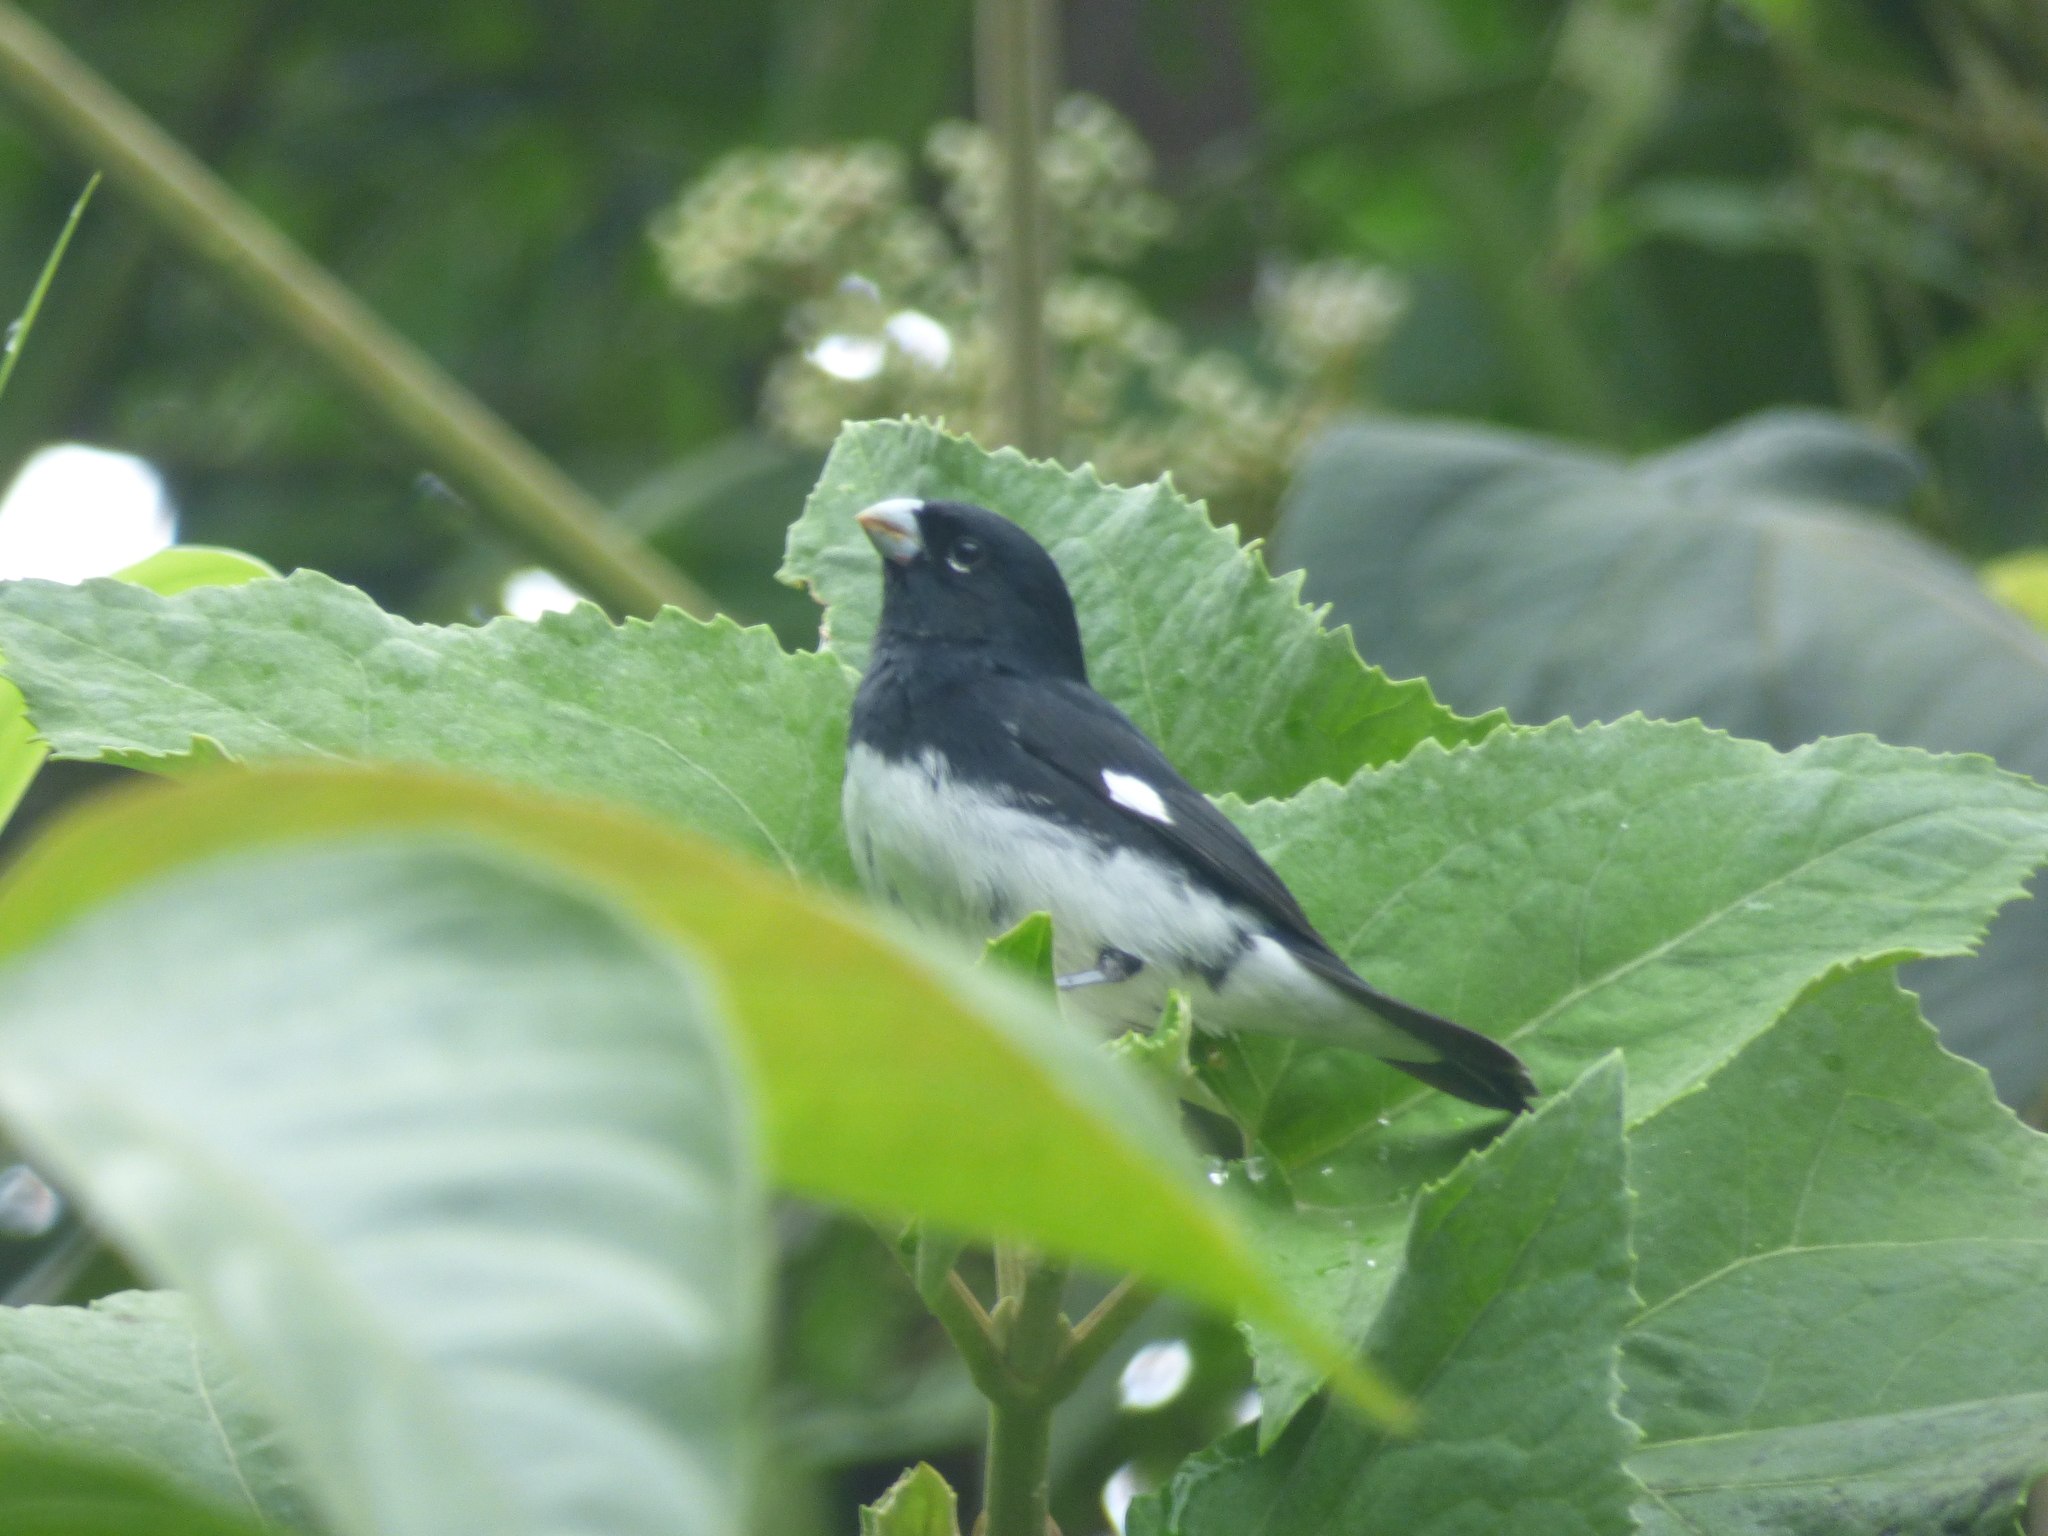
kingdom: Animalia
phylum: Chordata
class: Aves
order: Passeriformes
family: Thraupidae
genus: Sporophila
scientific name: Sporophila luctuosa
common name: Black-and-white seedeater
